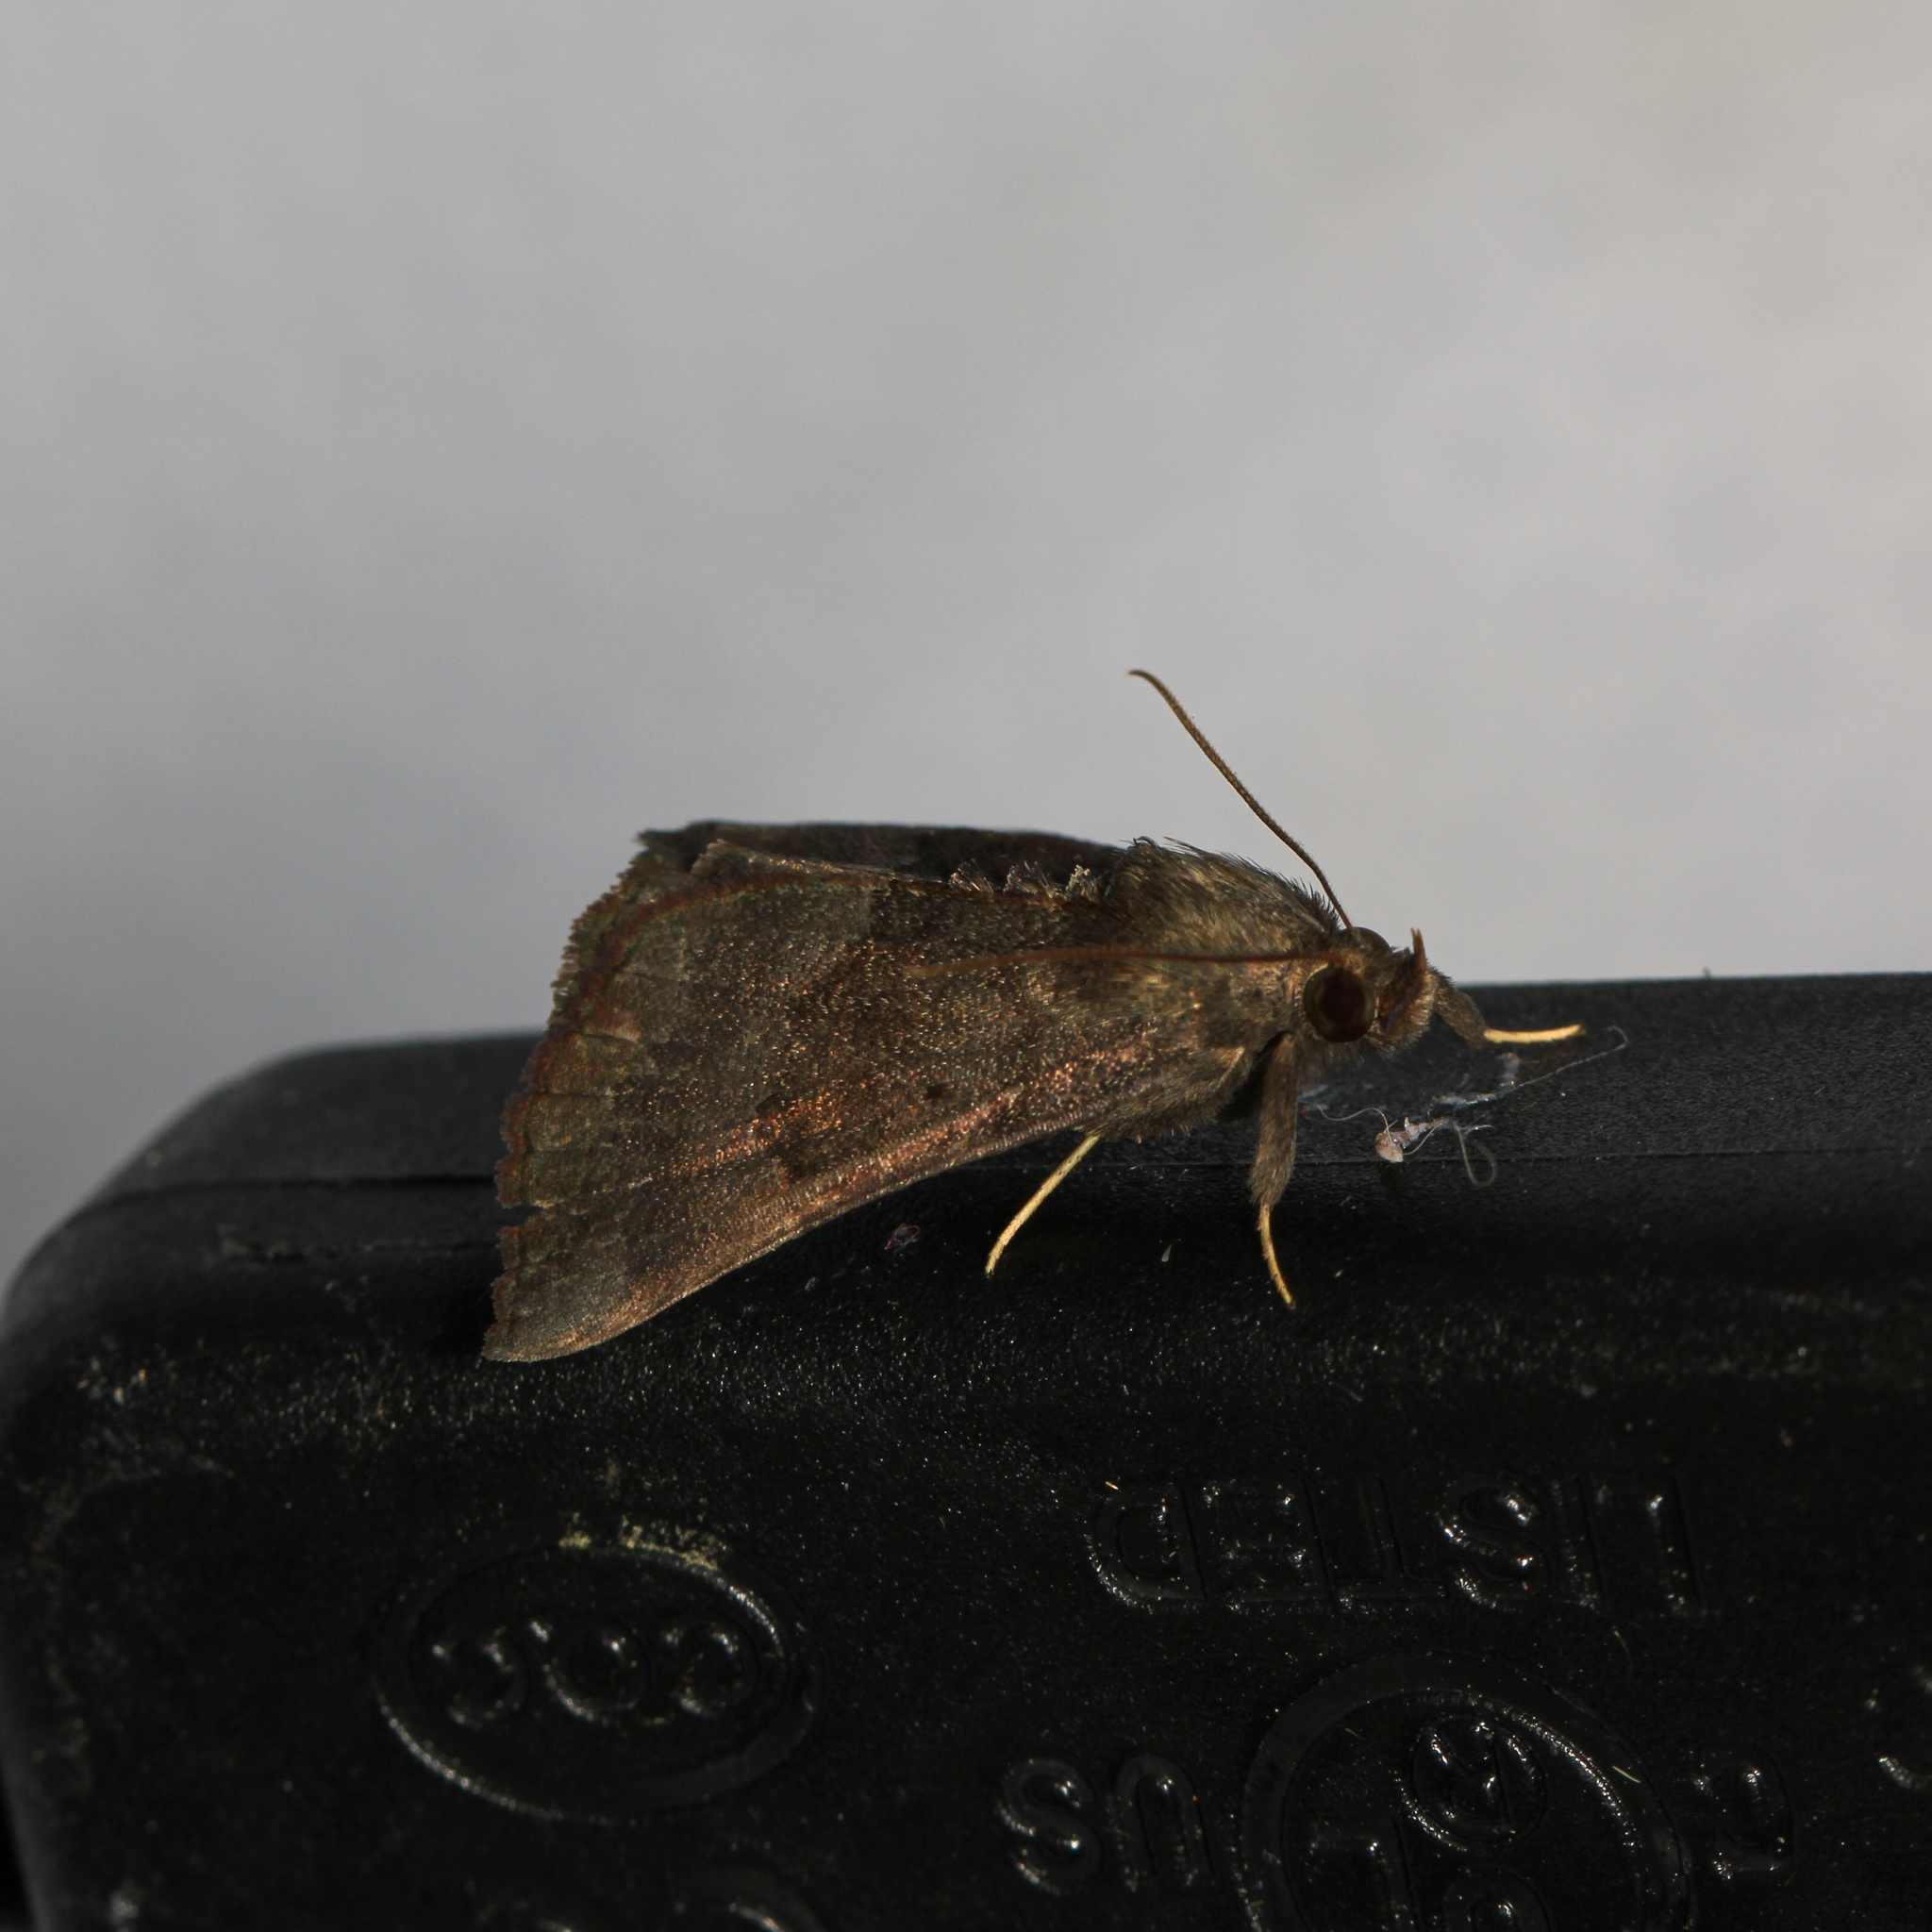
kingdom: Animalia
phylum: Arthropoda
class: Insecta
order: Lepidoptera
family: Erebidae
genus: Hypena
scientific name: Hypena madefactalis
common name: Gray-edged snout
